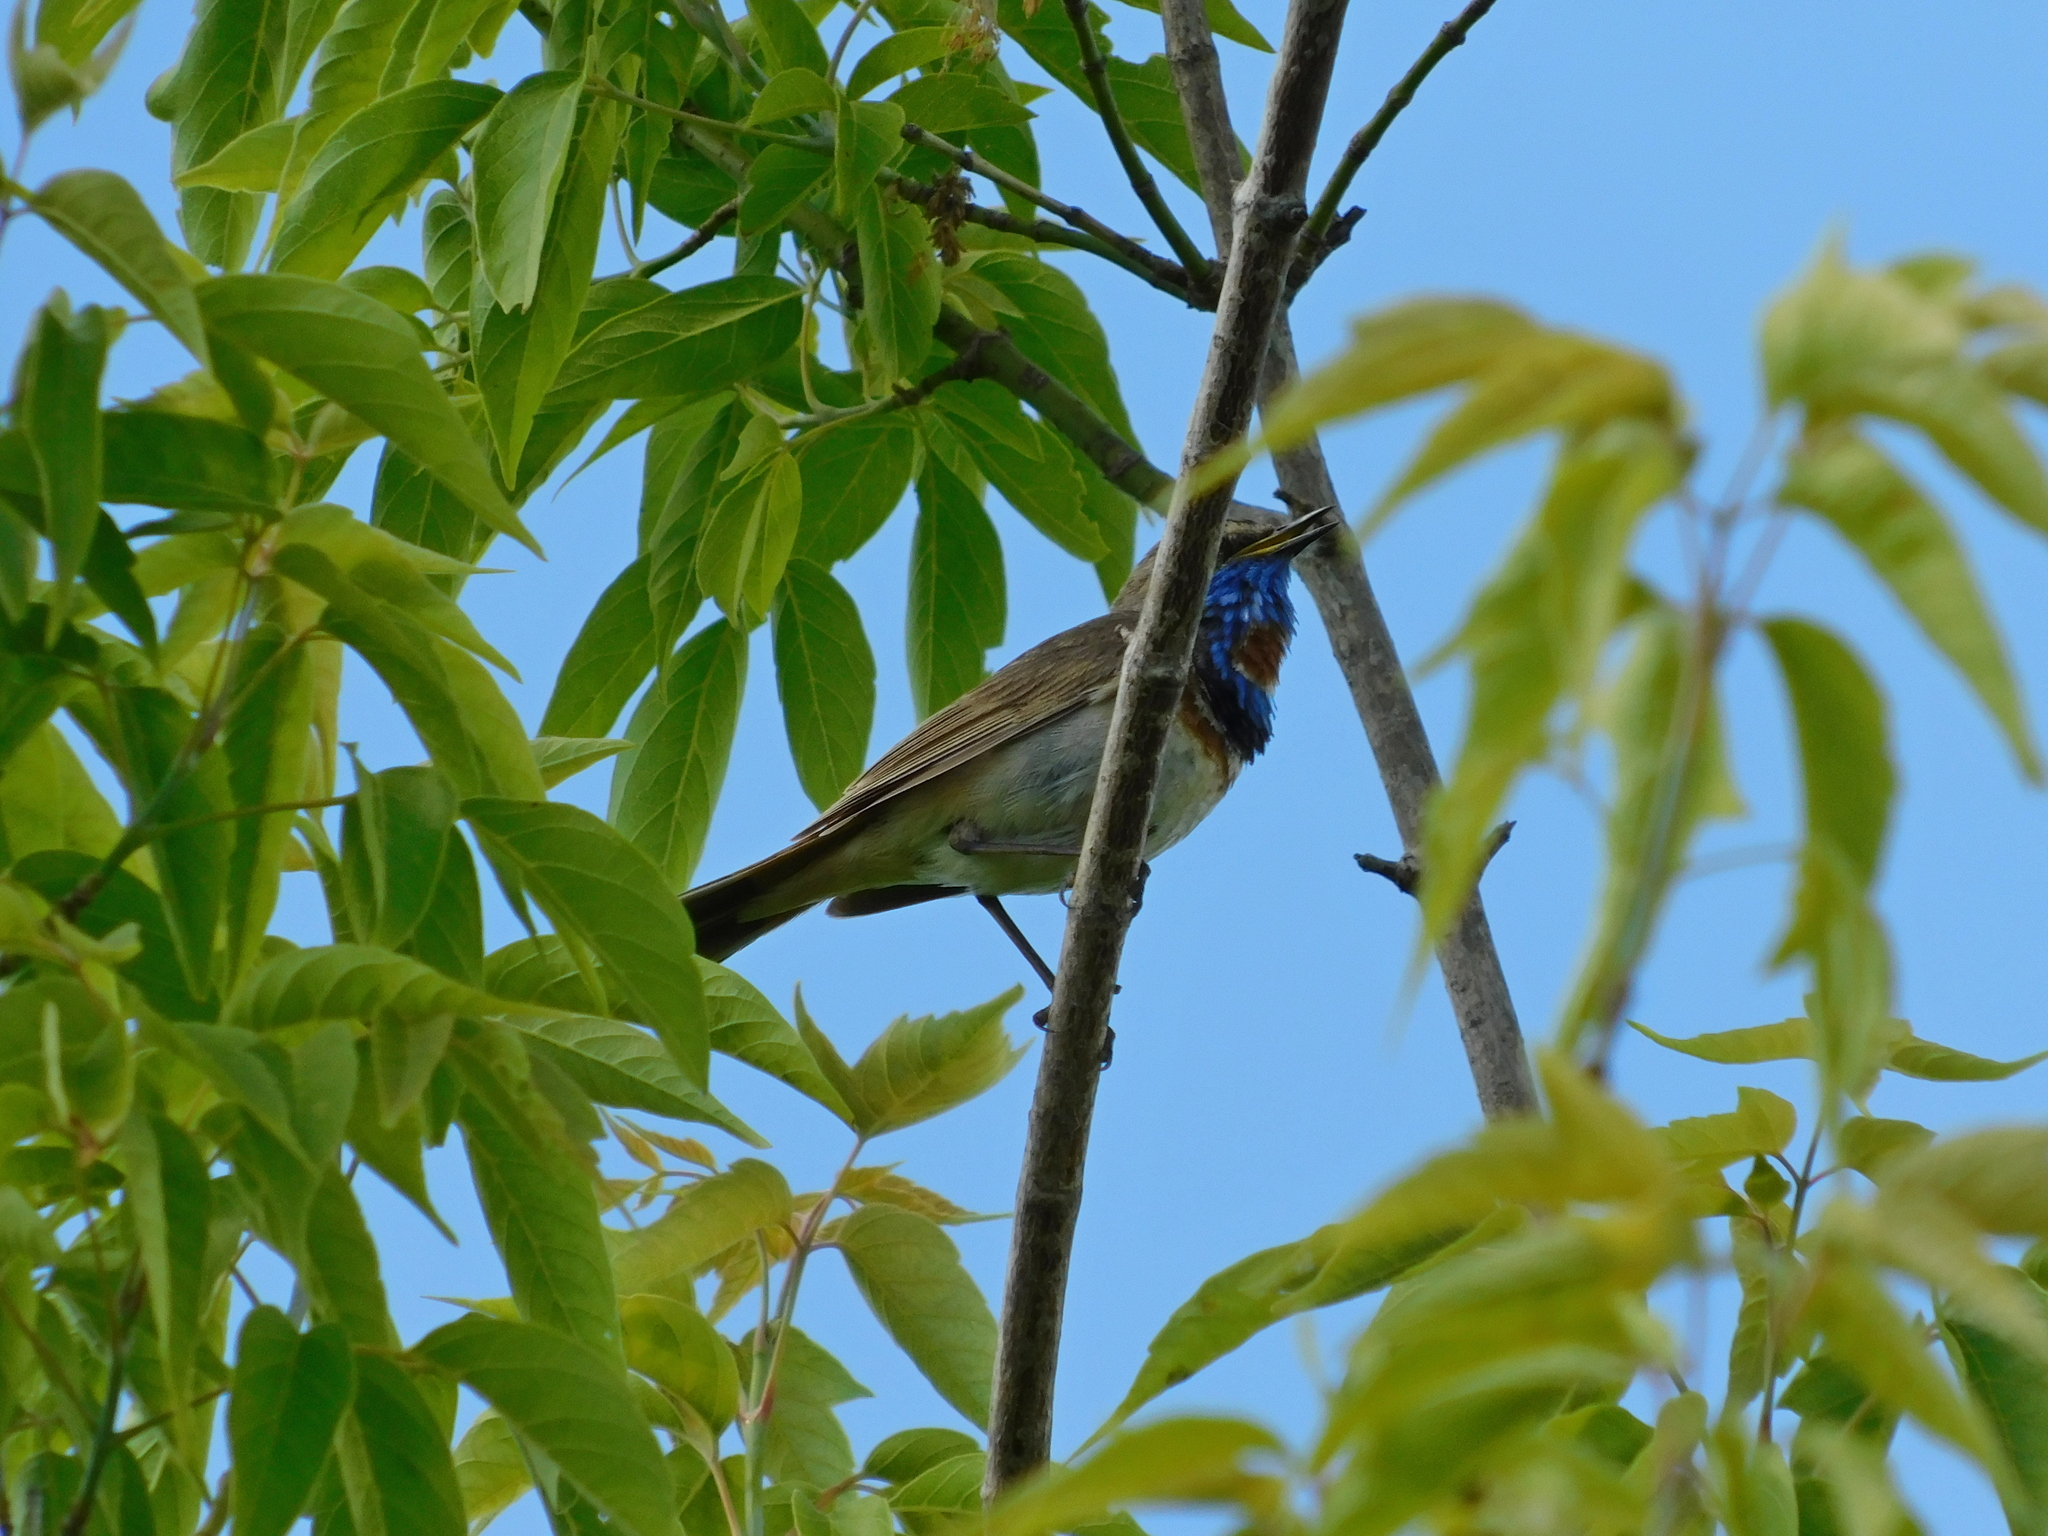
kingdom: Animalia
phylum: Chordata
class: Aves
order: Passeriformes
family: Muscicapidae
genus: Luscinia
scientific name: Luscinia svecica
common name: Bluethroat
